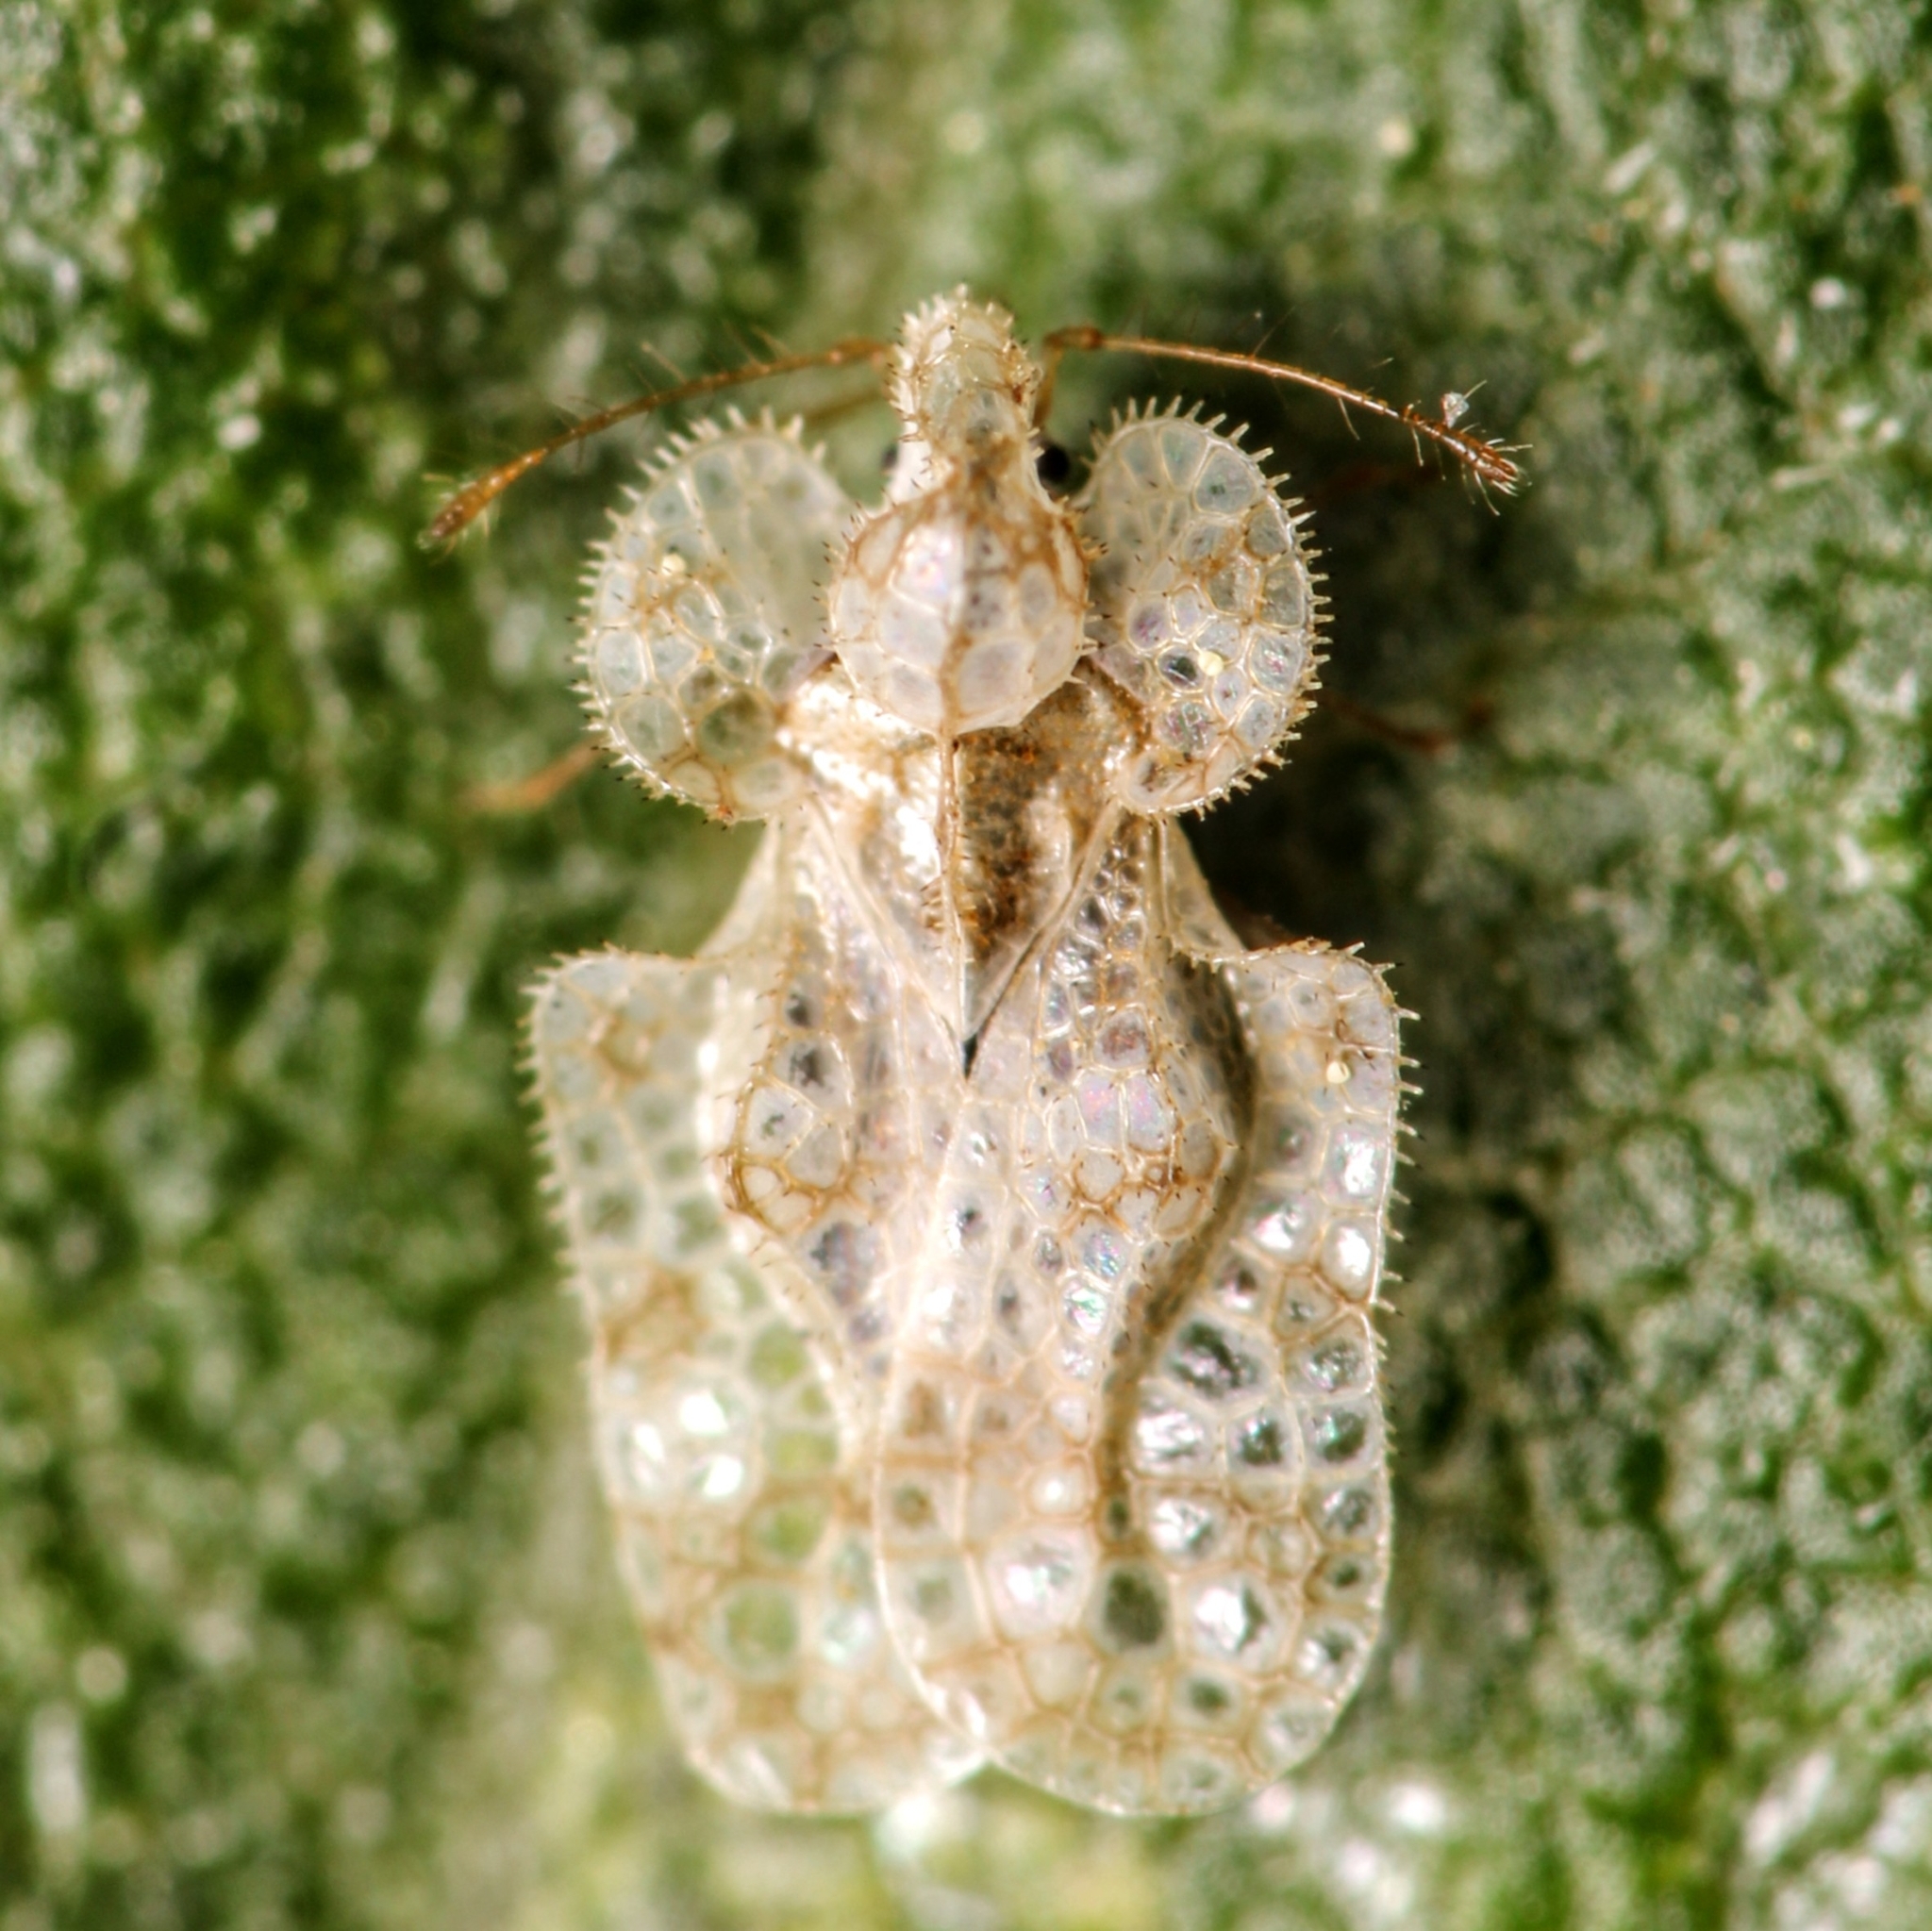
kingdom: Animalia
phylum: Arthropoda
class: Insecta
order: Hemiptera
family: Tingidae
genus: Corythucha
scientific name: Corythucha marmorata
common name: Chrysanthemum lace bug
